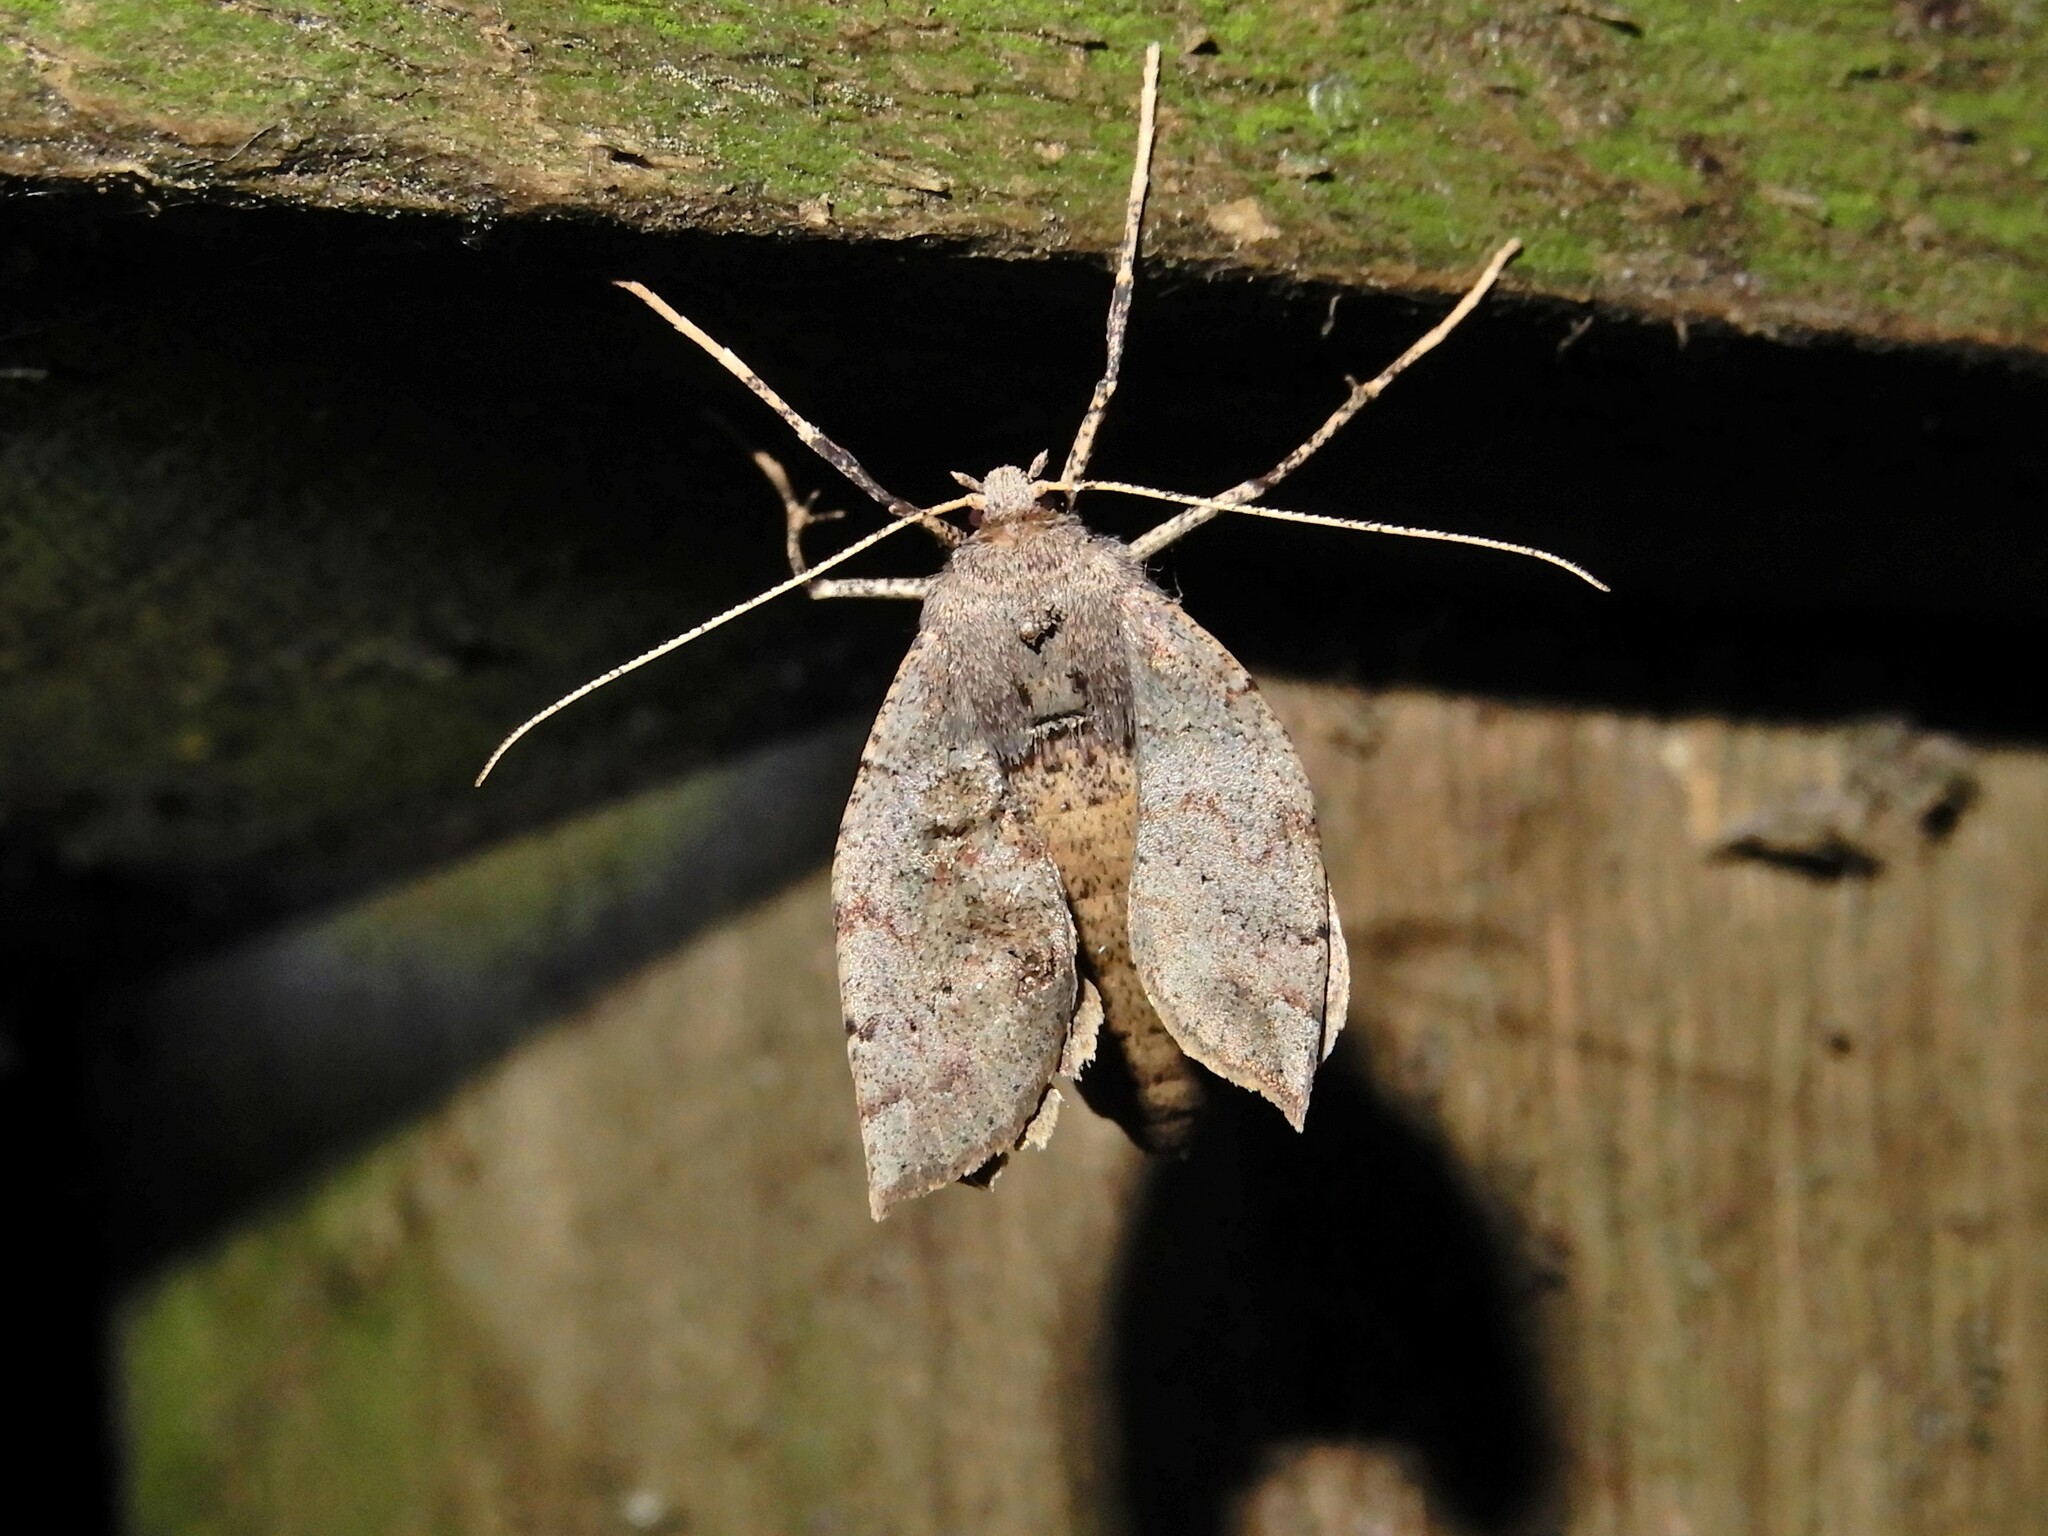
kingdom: Animalia
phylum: Arthropoda
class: Insecta
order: Lepidoptera
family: Geometridae
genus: Cleora
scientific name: Cleora scriptaria
